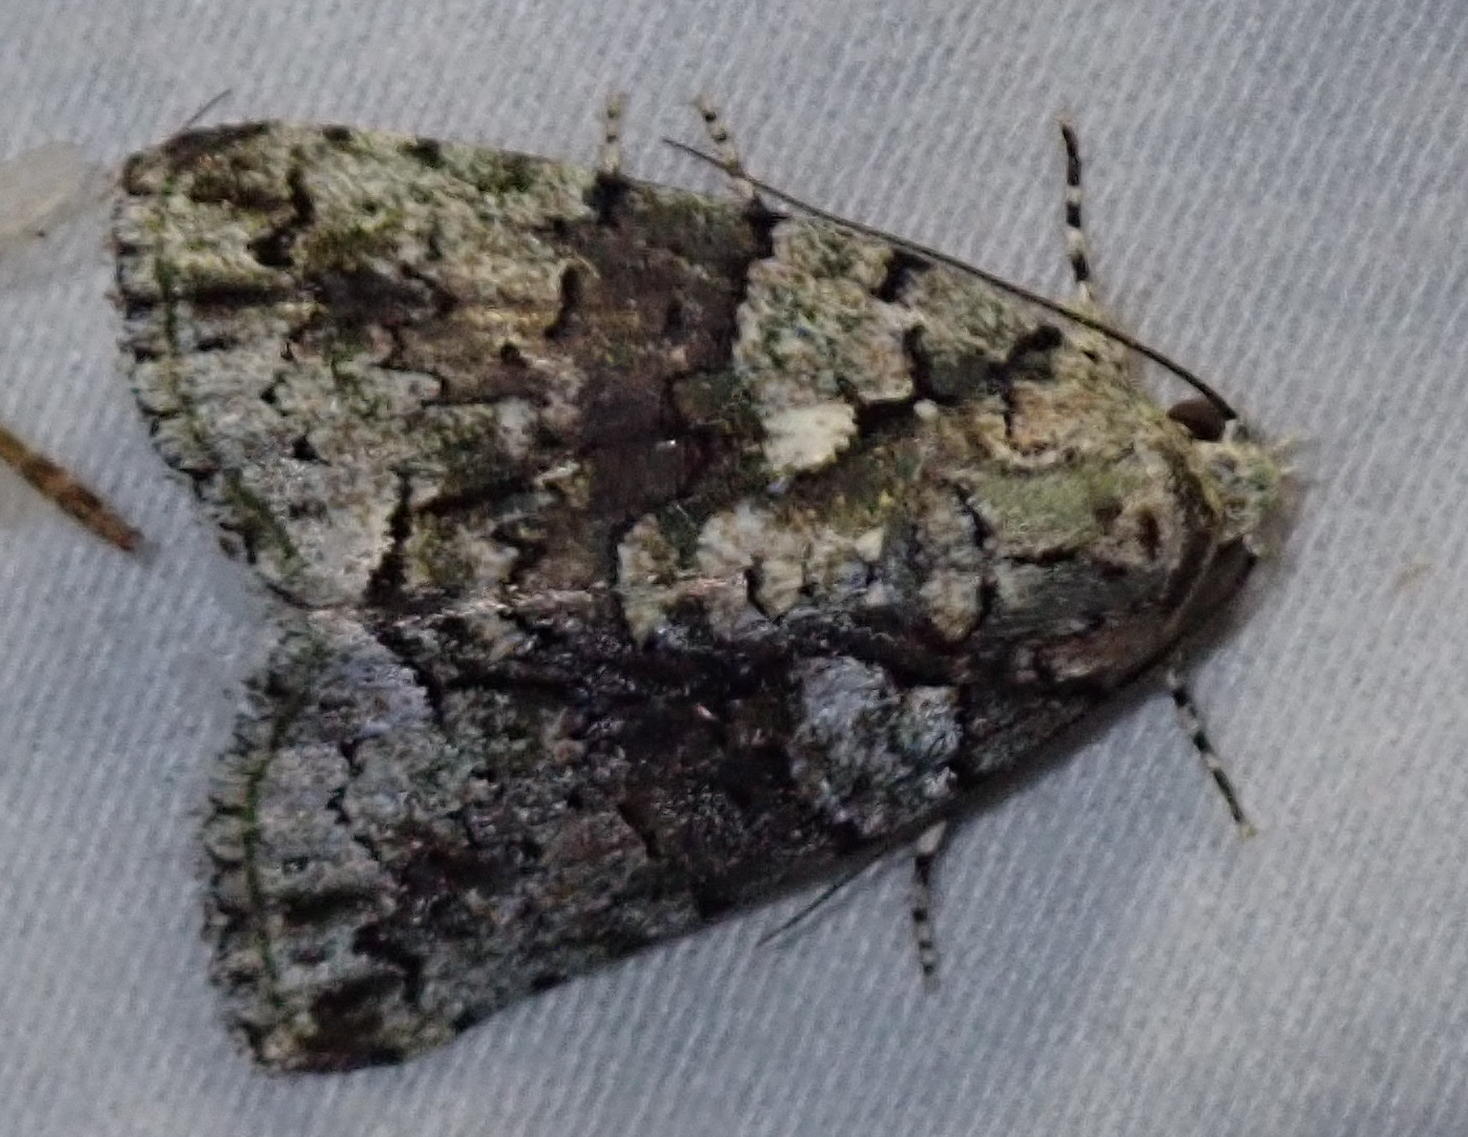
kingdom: Animalia
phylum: Arthropoda
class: Insecta
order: Lepidoptera
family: Nolidae
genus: Blenina
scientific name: Blenina squamifera
